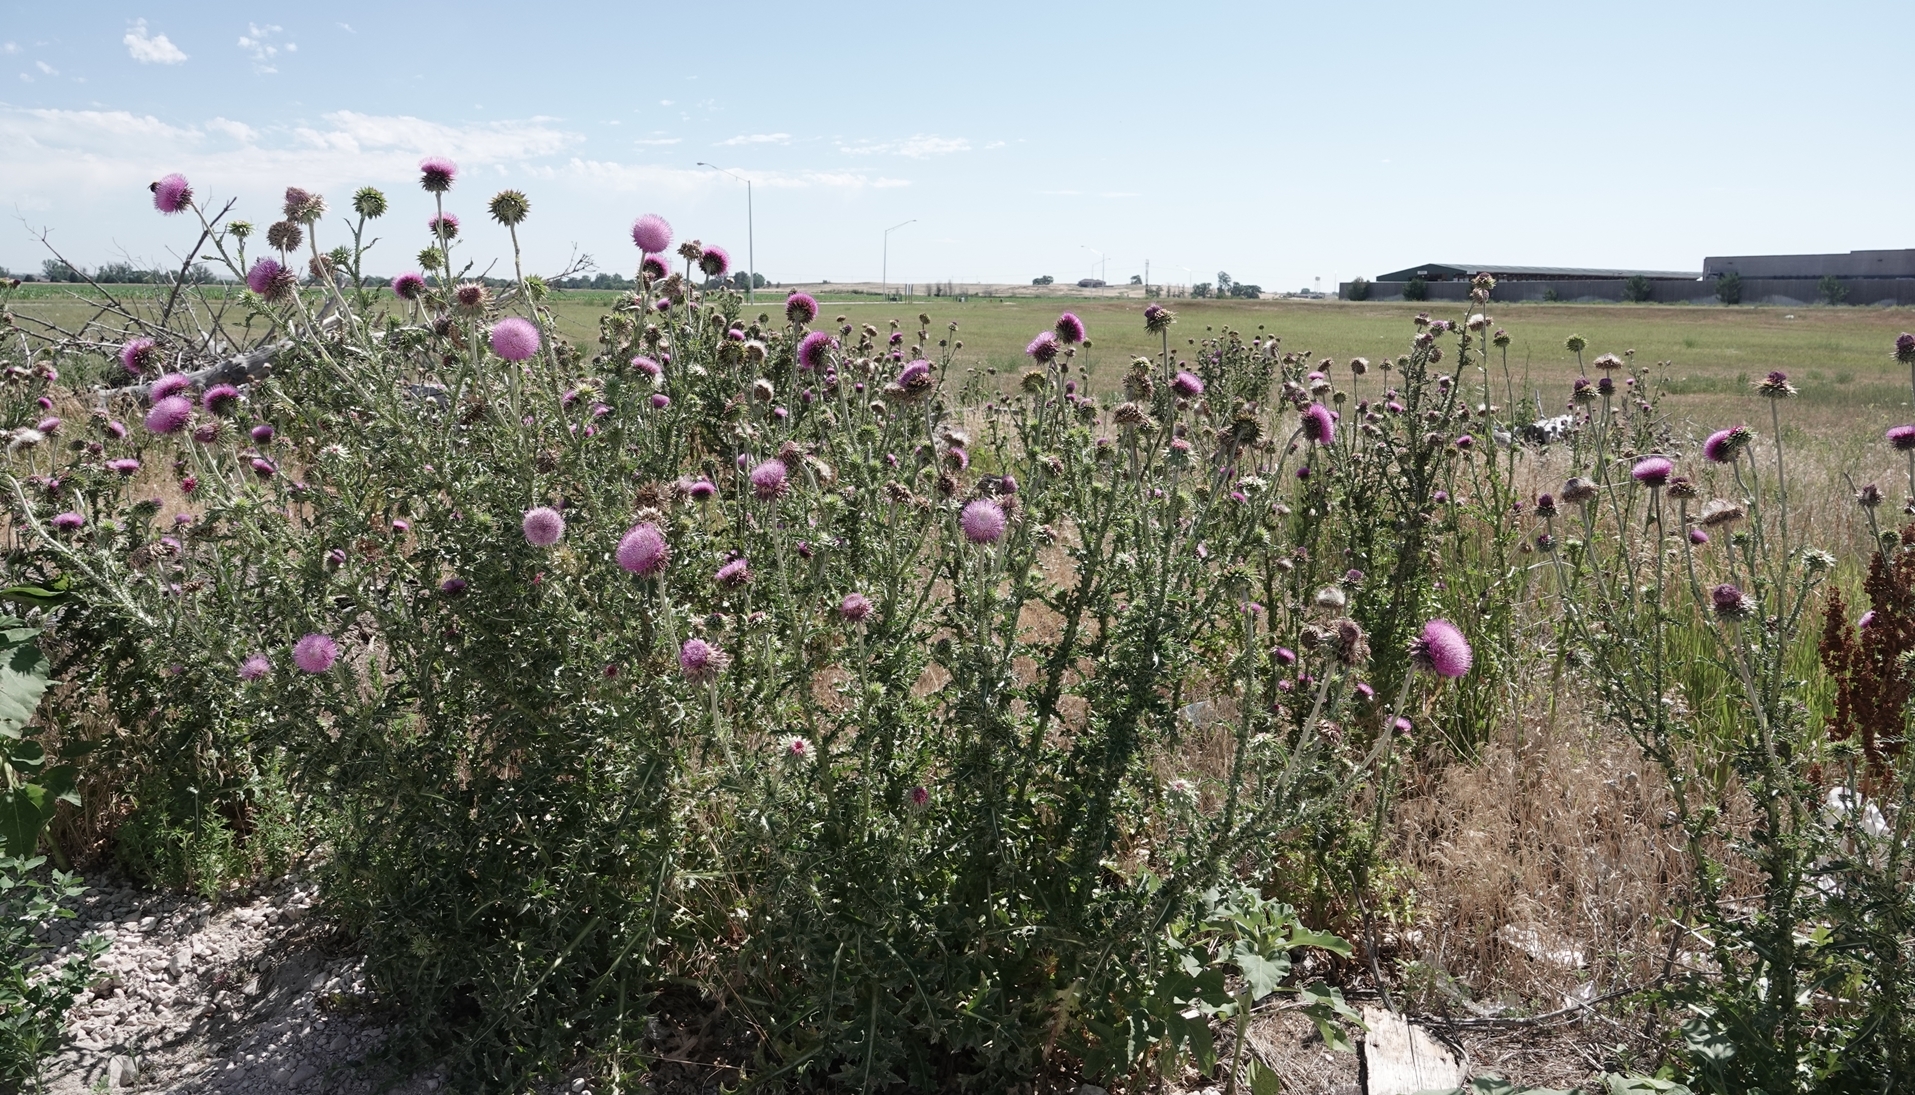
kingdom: Plantae
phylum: Tracheophyta
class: Magnoliopsida
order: Asterales
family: Asteraceae
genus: Carduus
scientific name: Carduus nutans
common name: Musk thistle
